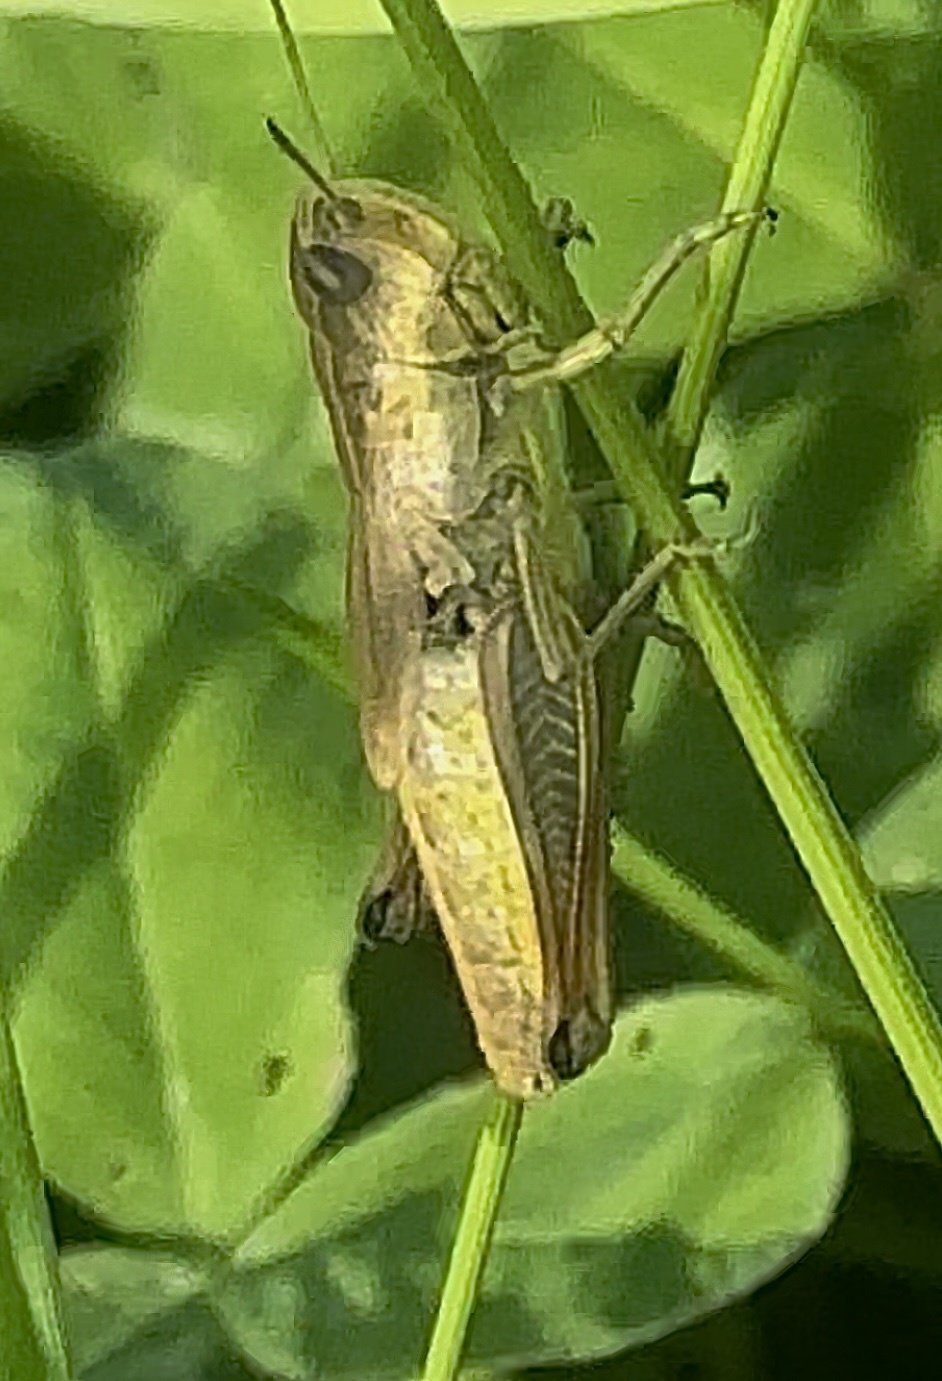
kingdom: Animalia
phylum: Arthropoda
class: Insecta
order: Orthoptera
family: Acrididae
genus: Pseudochorthippus
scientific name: Pseudochorthippus parallelus
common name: Meadow grasshopper
